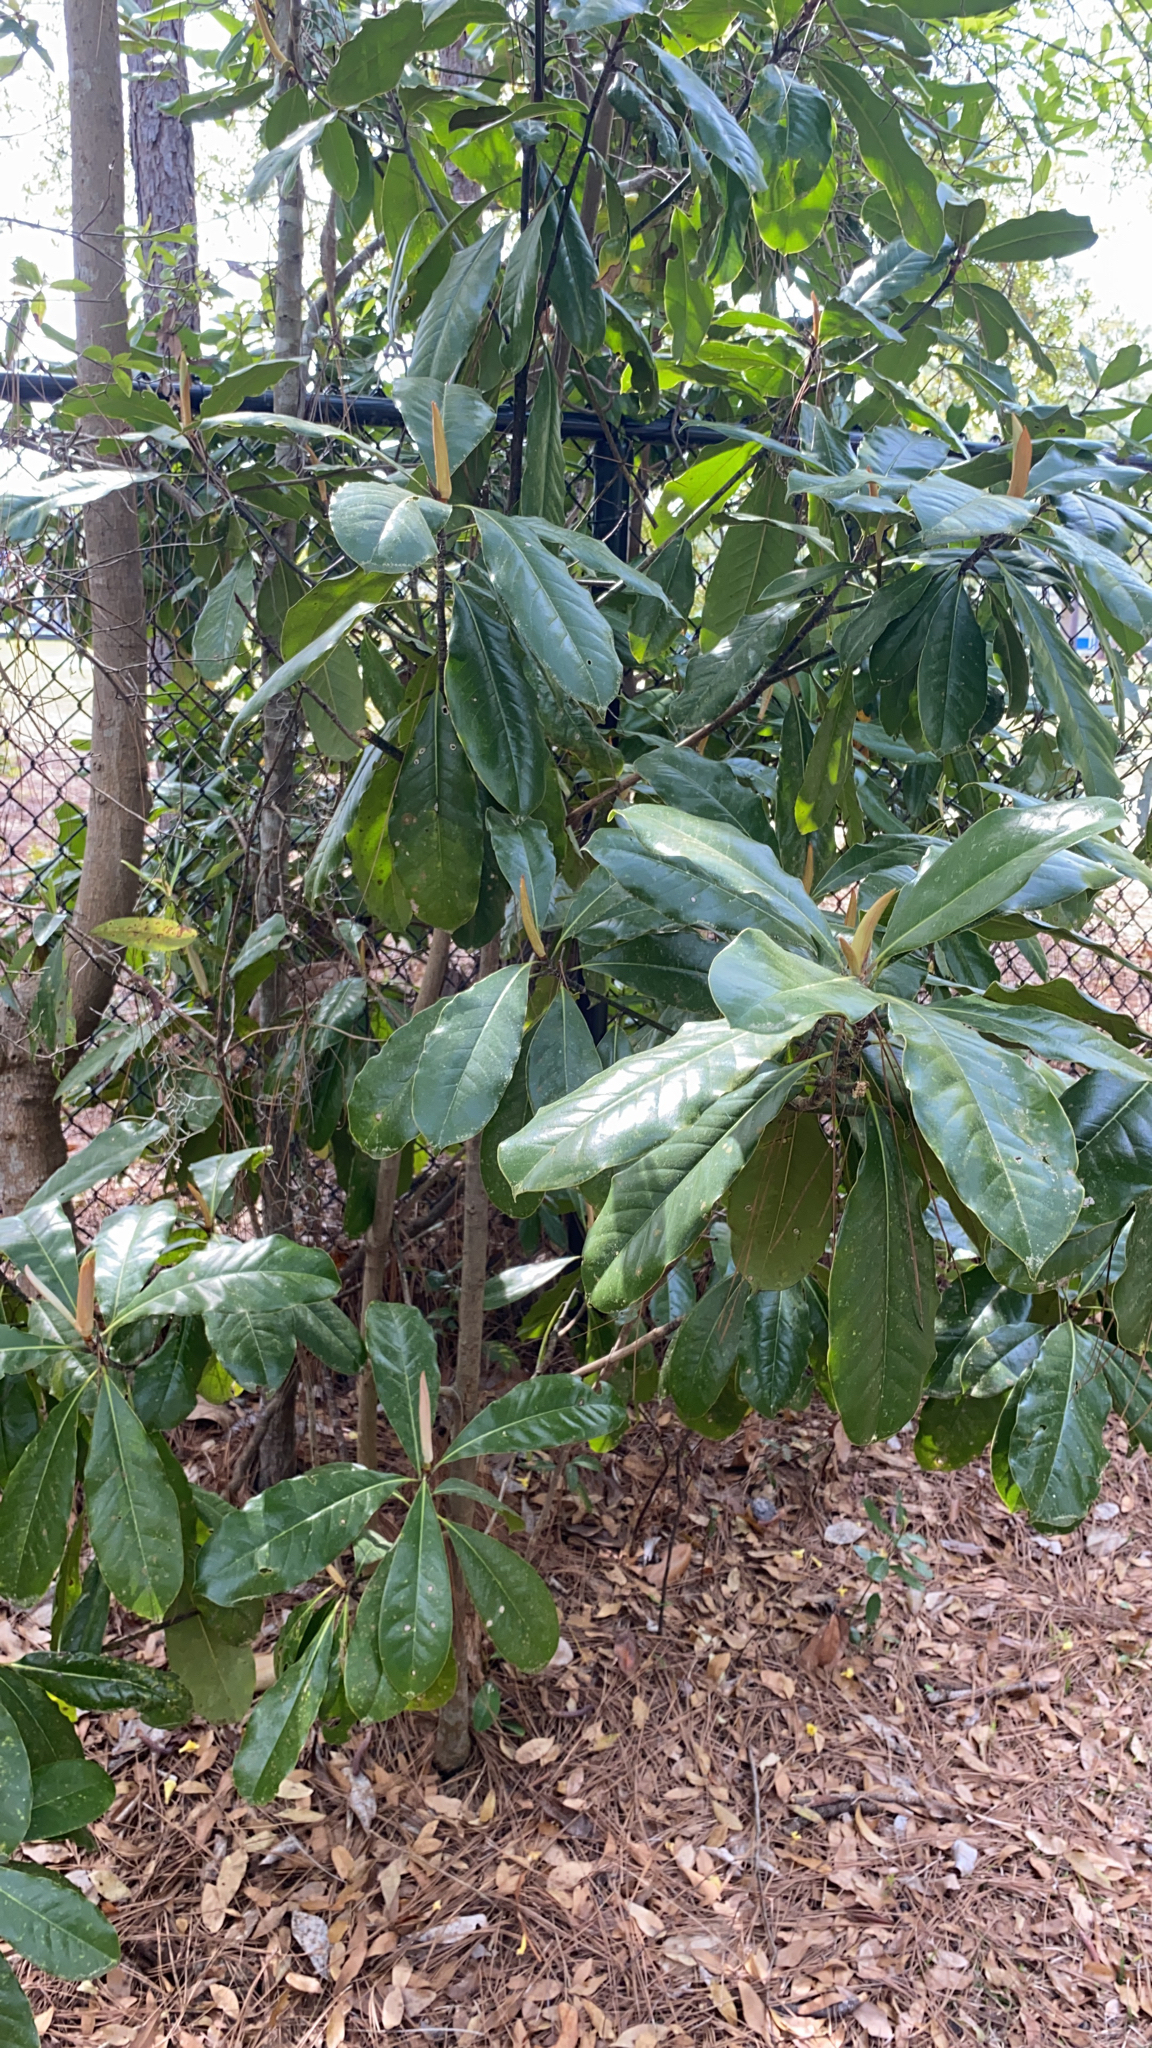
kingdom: Plantae
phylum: Tracheophyta
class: Magnoliopsida
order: Magnoliales
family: Magnoliaceae
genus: Magnolia
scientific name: Magnolia grandiflora
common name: Southern magnolia
